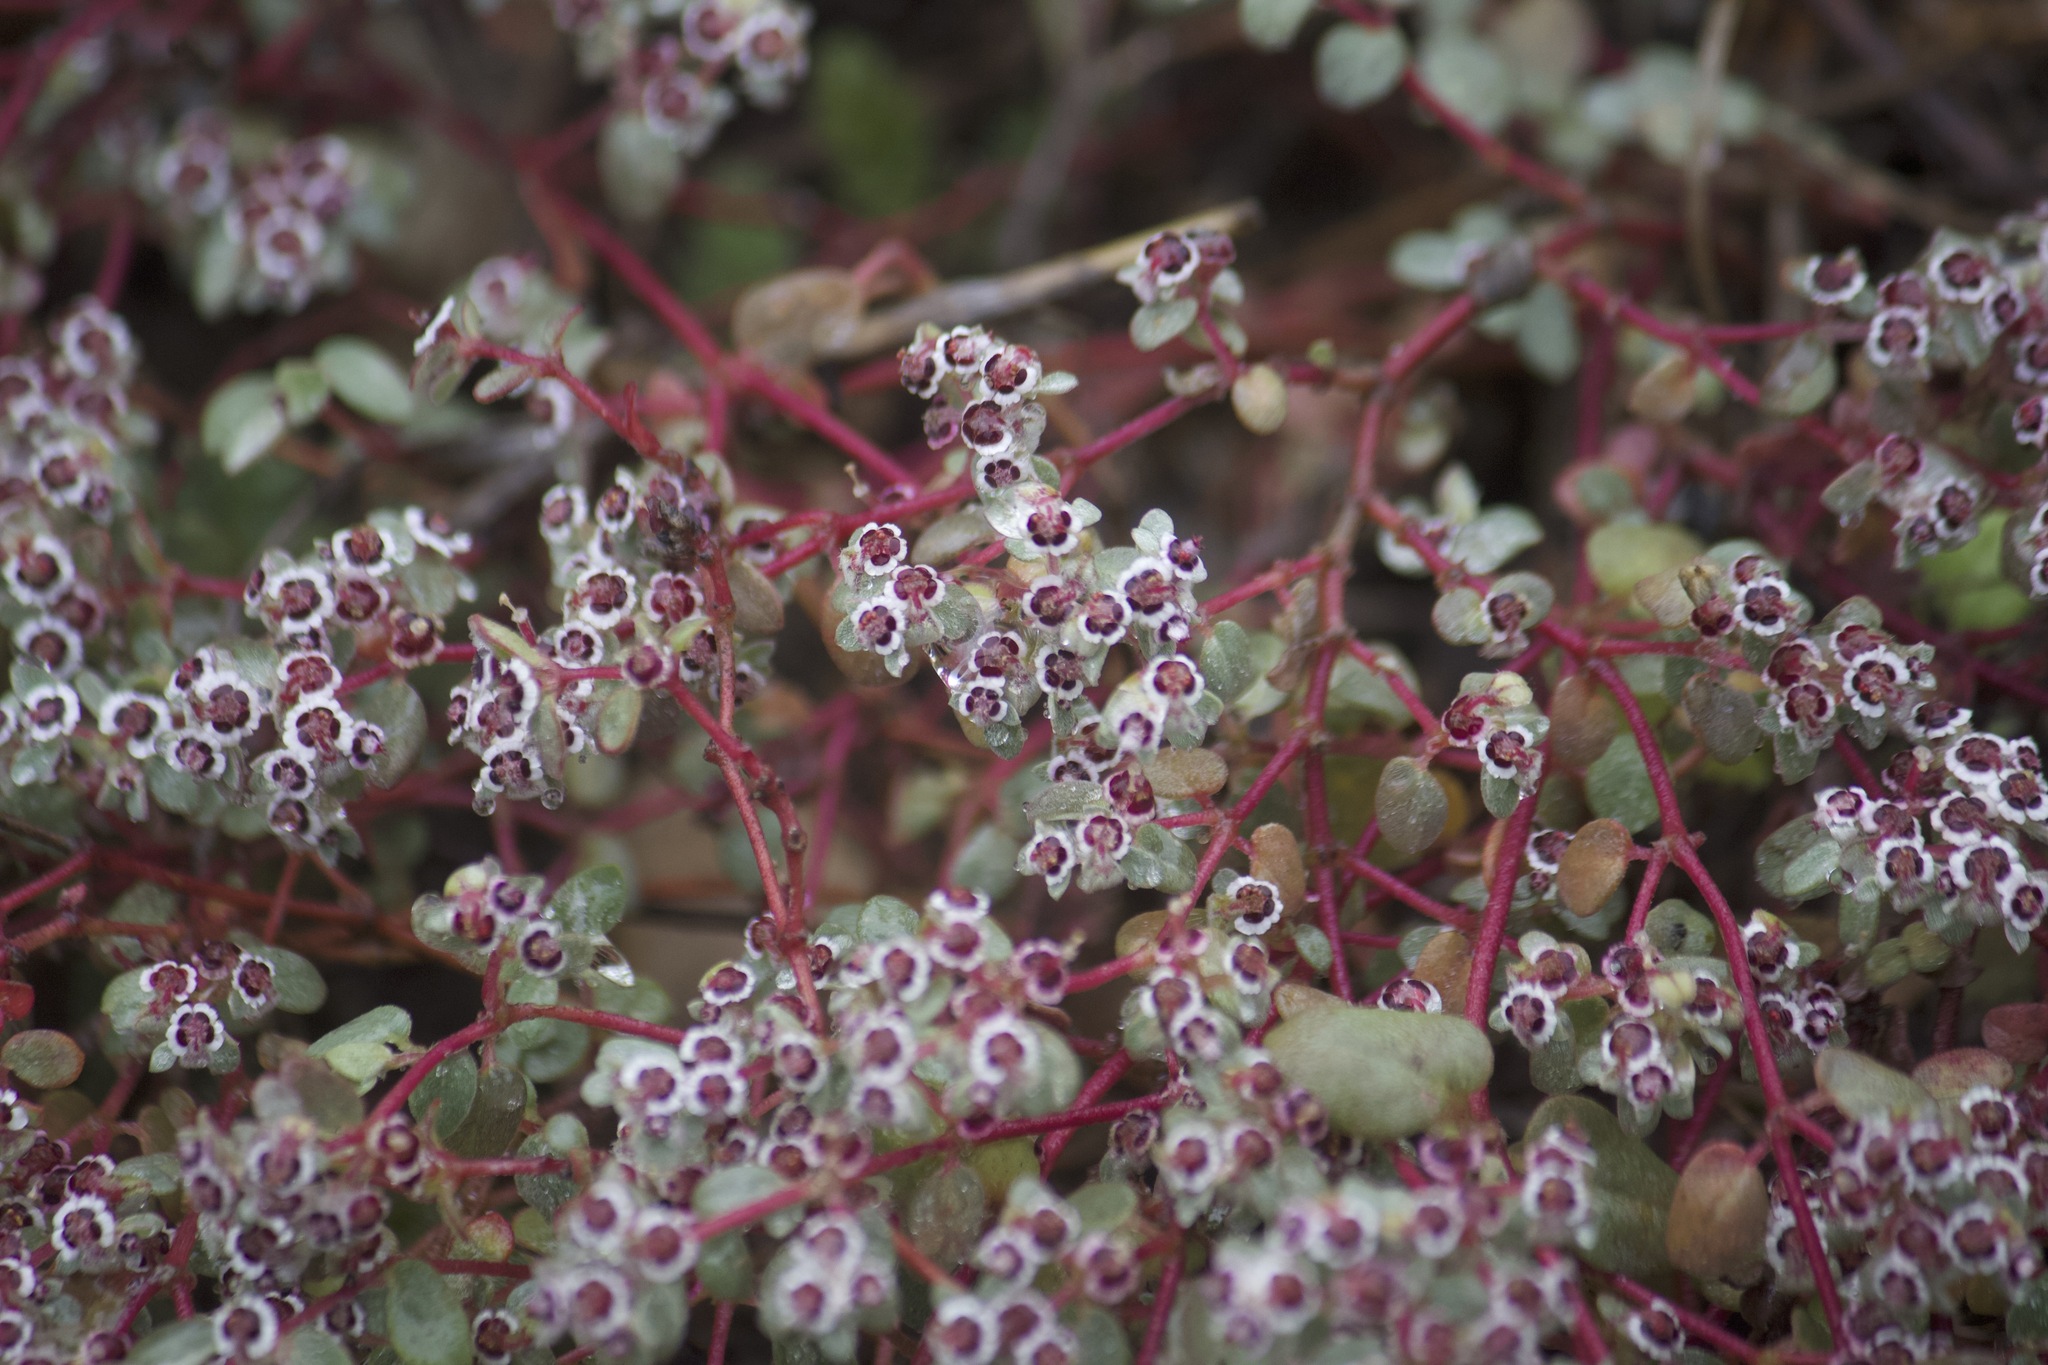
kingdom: Plantae
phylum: Tracheophyta
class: Magnoliopsida
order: Malpighiales
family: Euphorbiaceae
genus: Euphorbia
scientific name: Euphorbia melanadenia
